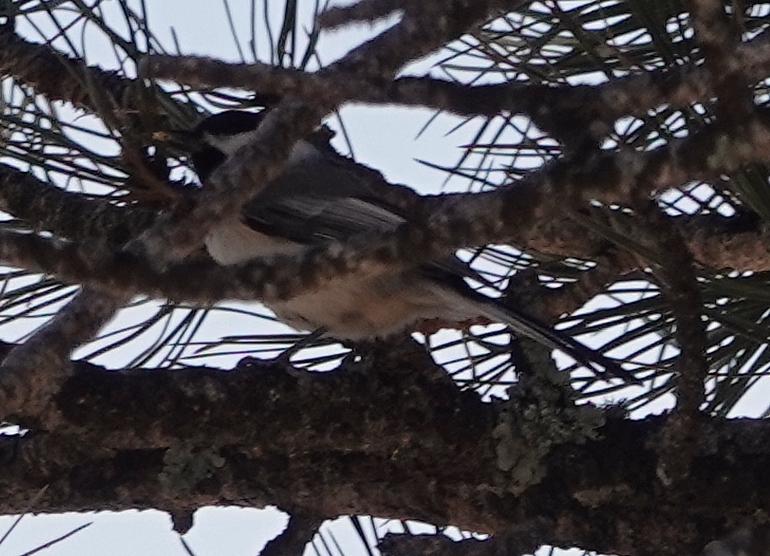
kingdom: Animalia
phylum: Chordata
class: Aves
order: Passeriformes
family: Paridae
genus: Poecile
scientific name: Poecile atricapillus
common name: Black-capped chickadee
